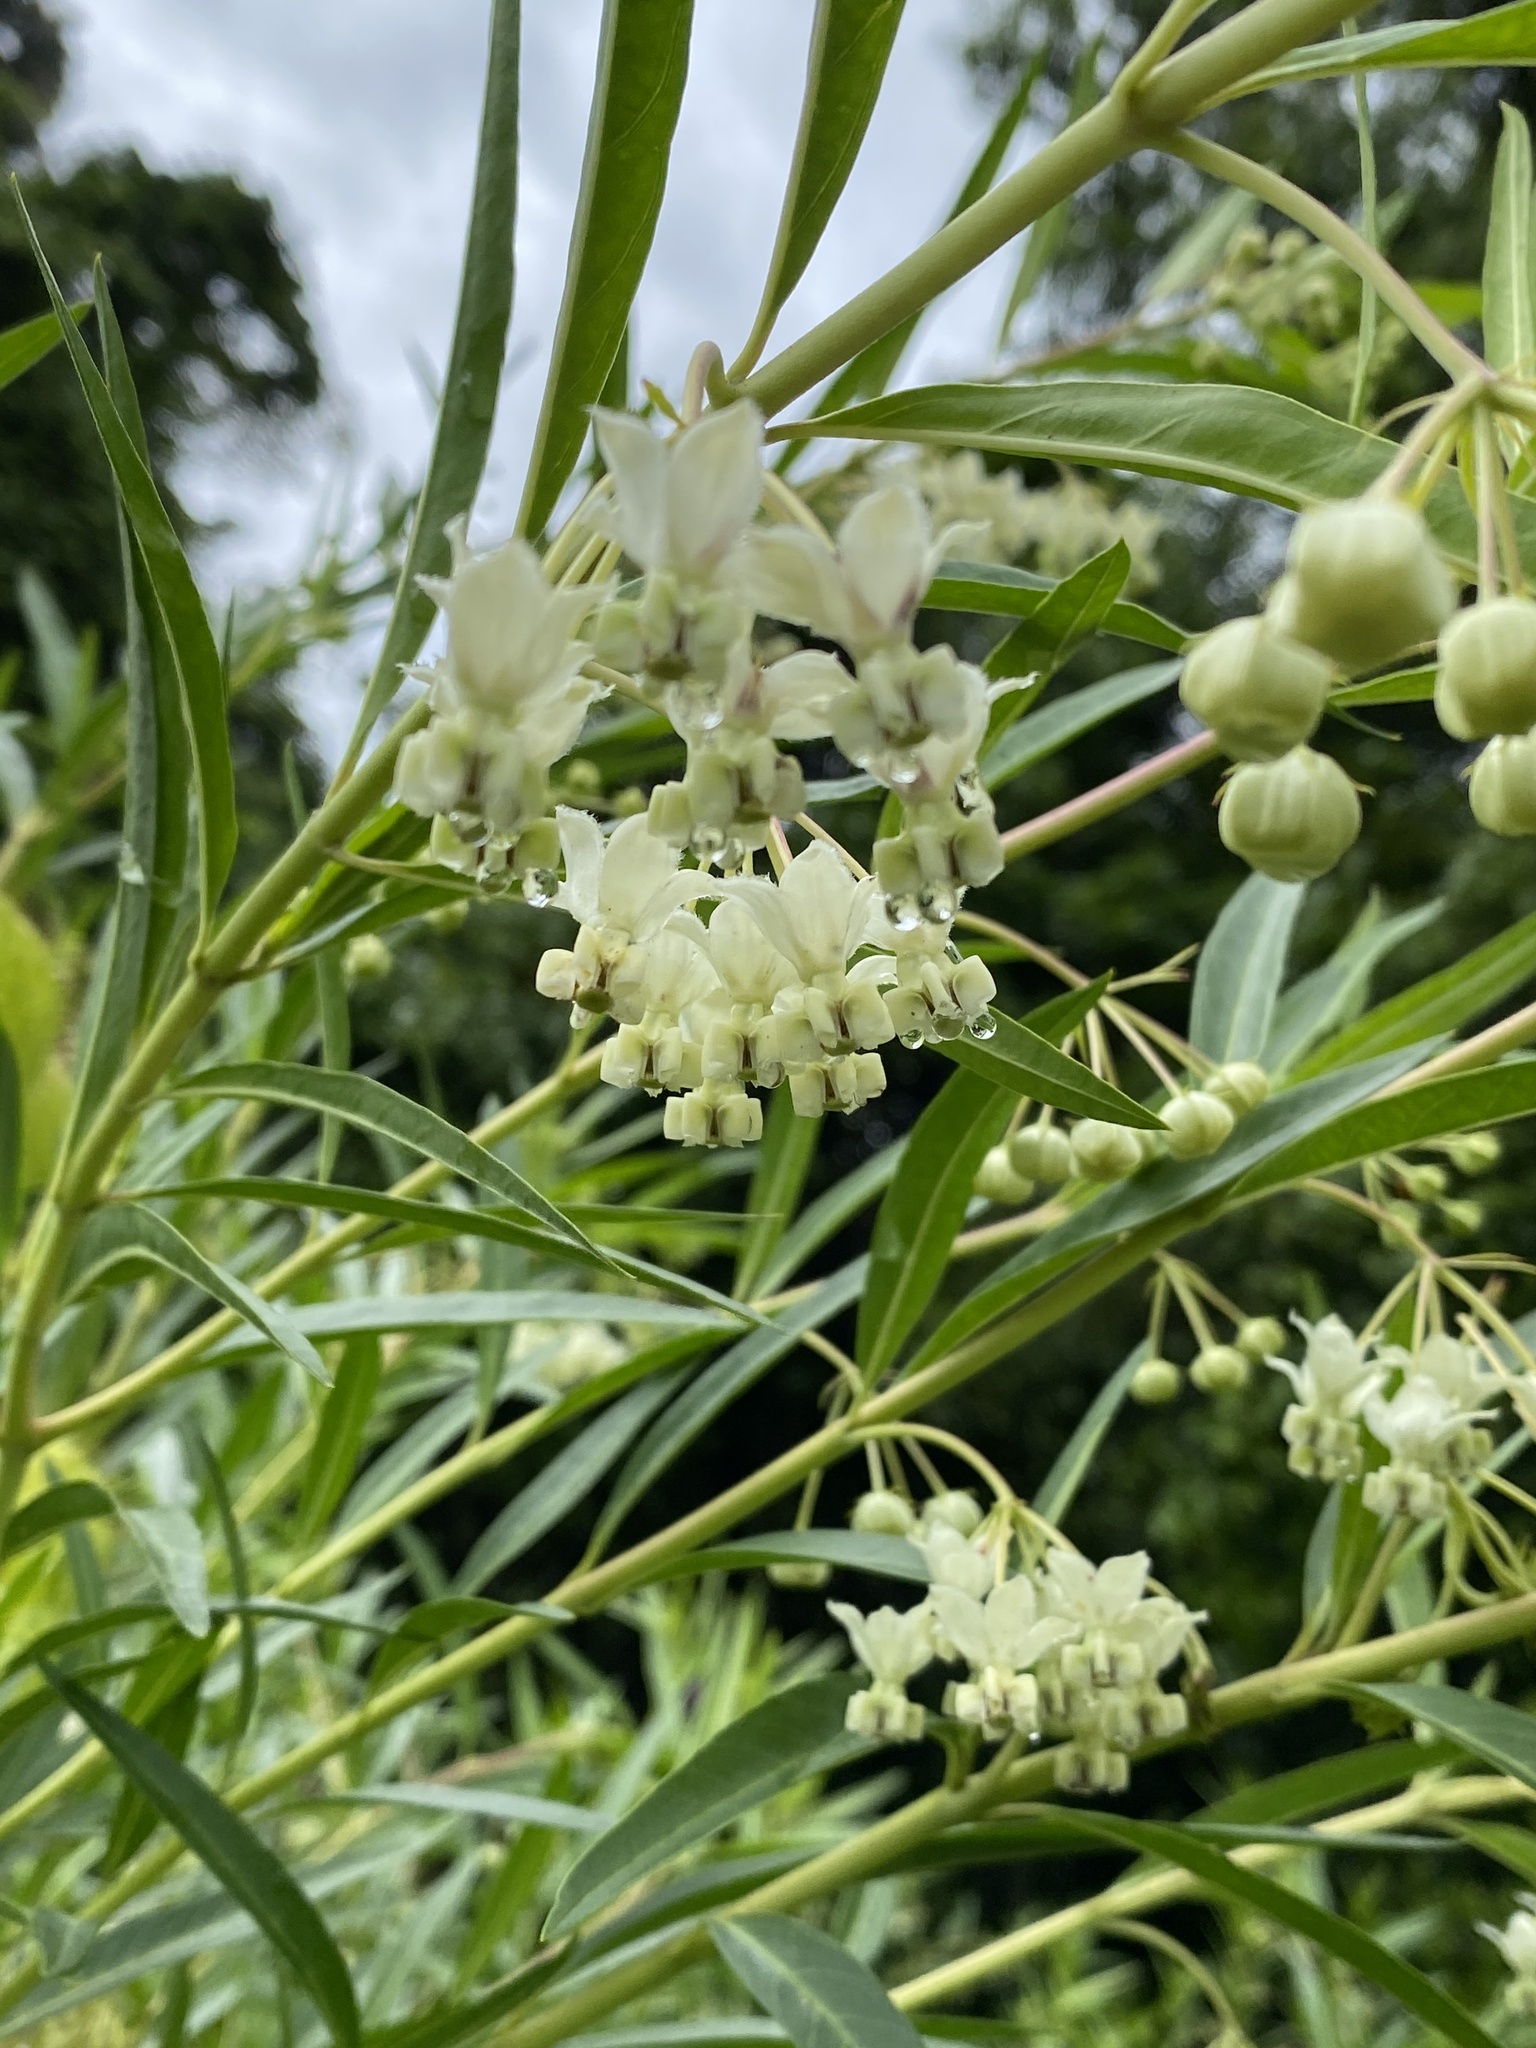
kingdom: Plantae
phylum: Tracheophyta
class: Magnoliopsida
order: Gentianales
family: Apocynaceae
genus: Gomphocarpus
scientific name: Gomphocarpus fruticosus
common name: Milkweed
